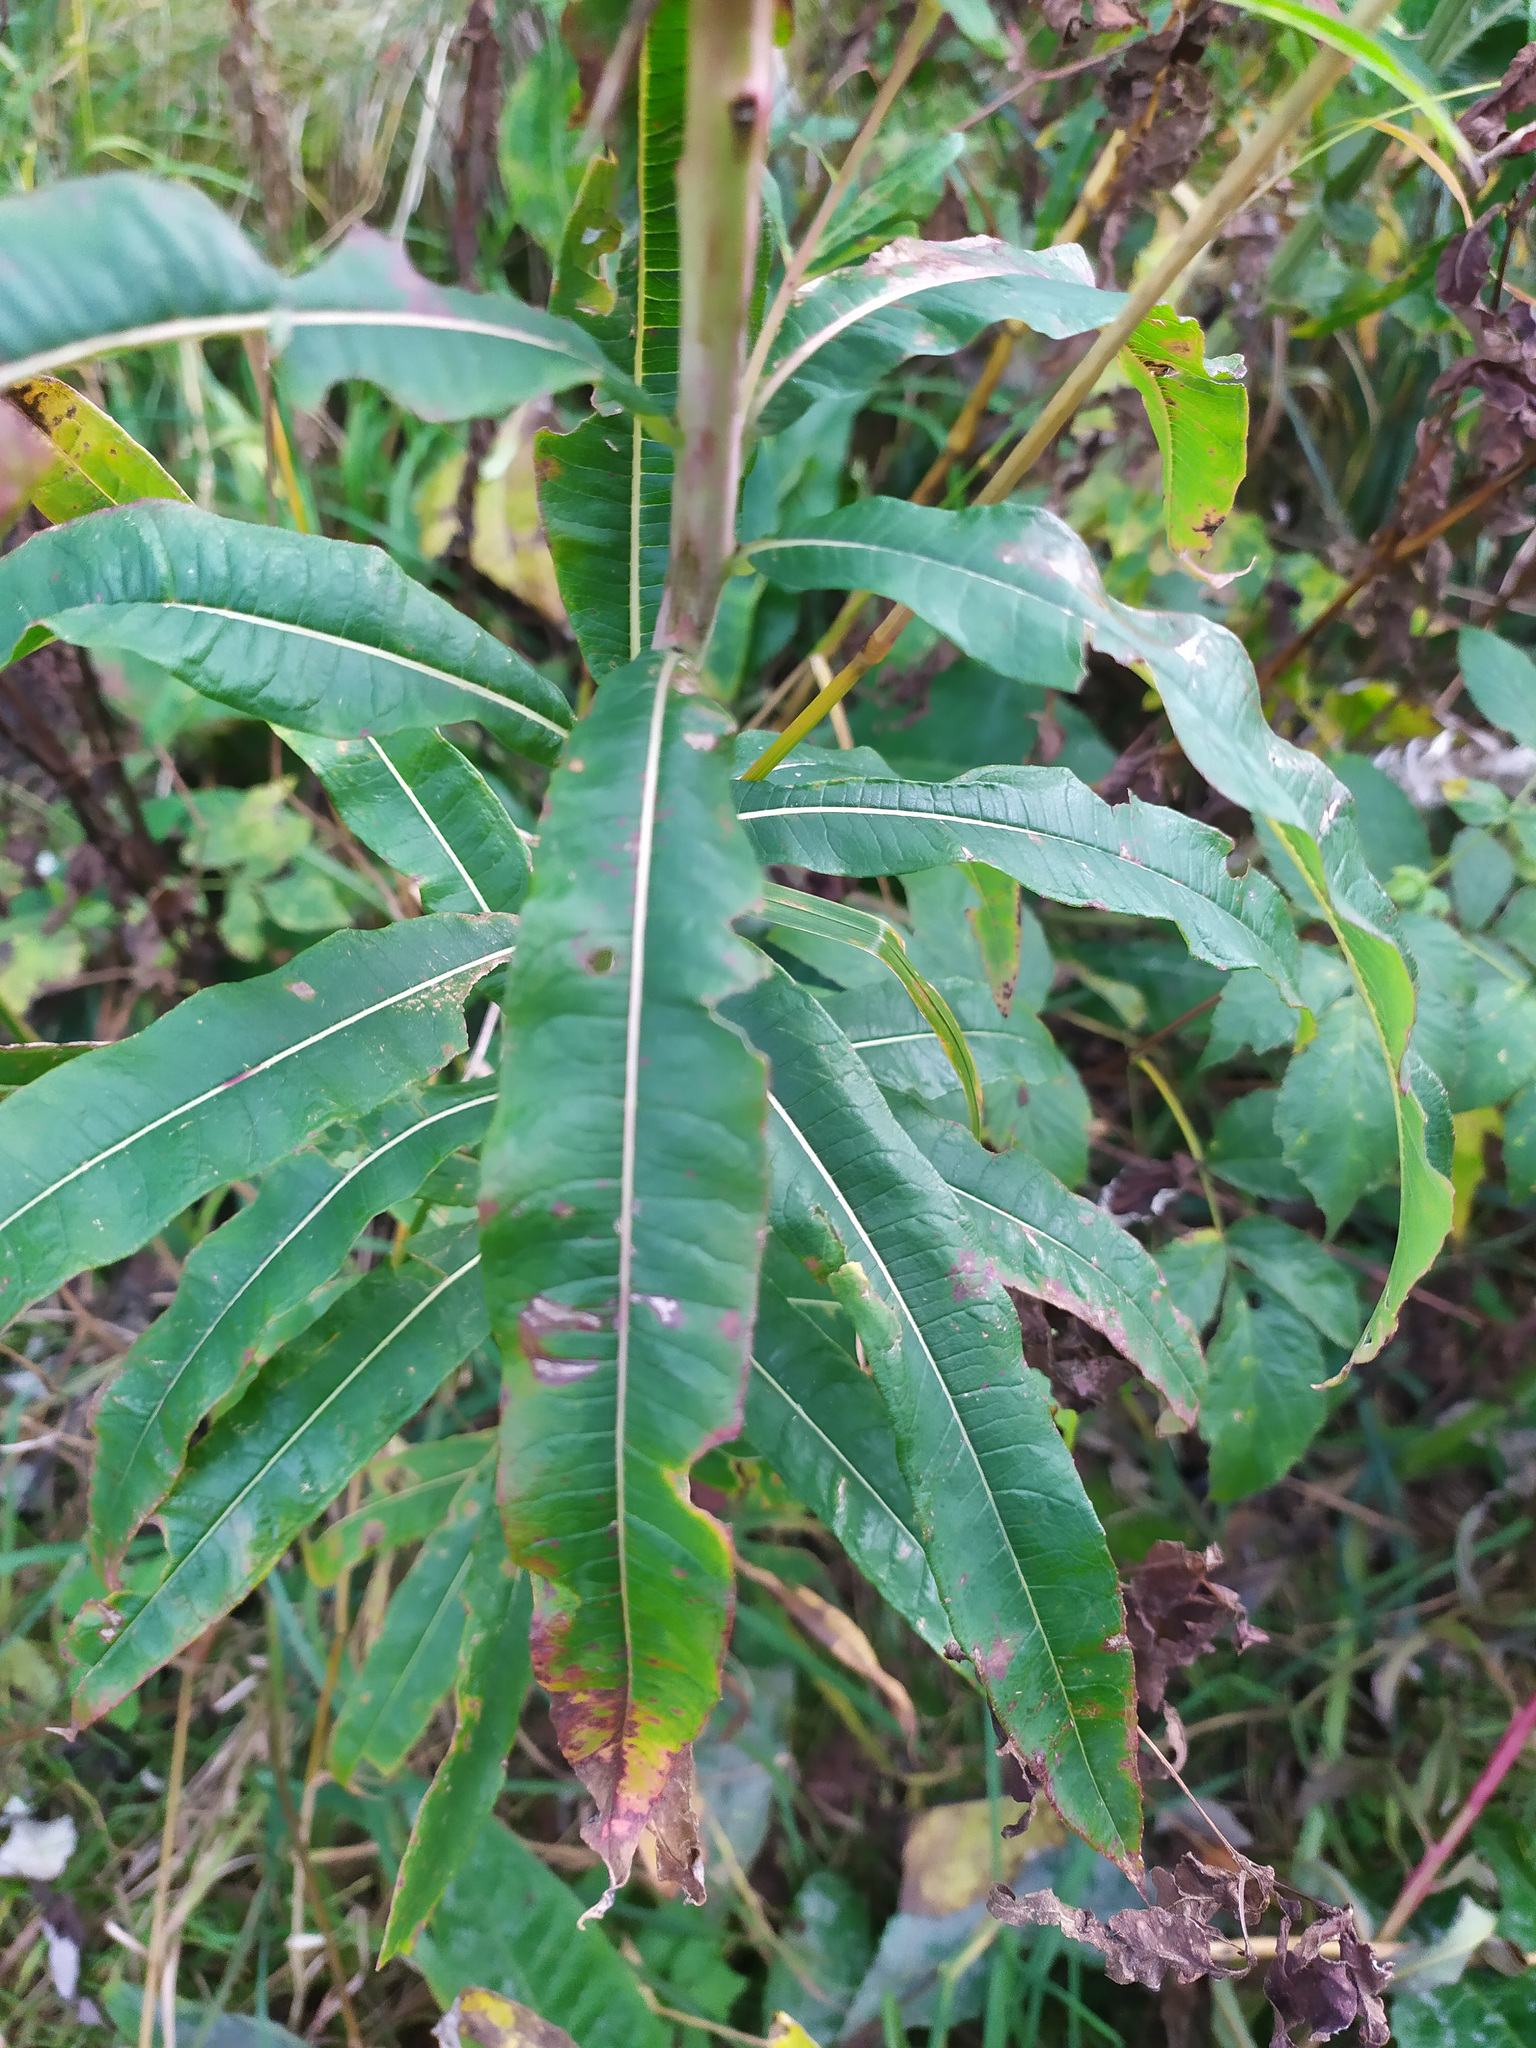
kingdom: Plantae
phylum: Tracheophyta
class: Magnoliopsida
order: Myrtales
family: Onagraceae
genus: Chamaenerion
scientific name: Chamaenerion angustifolium
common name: Fireweed
